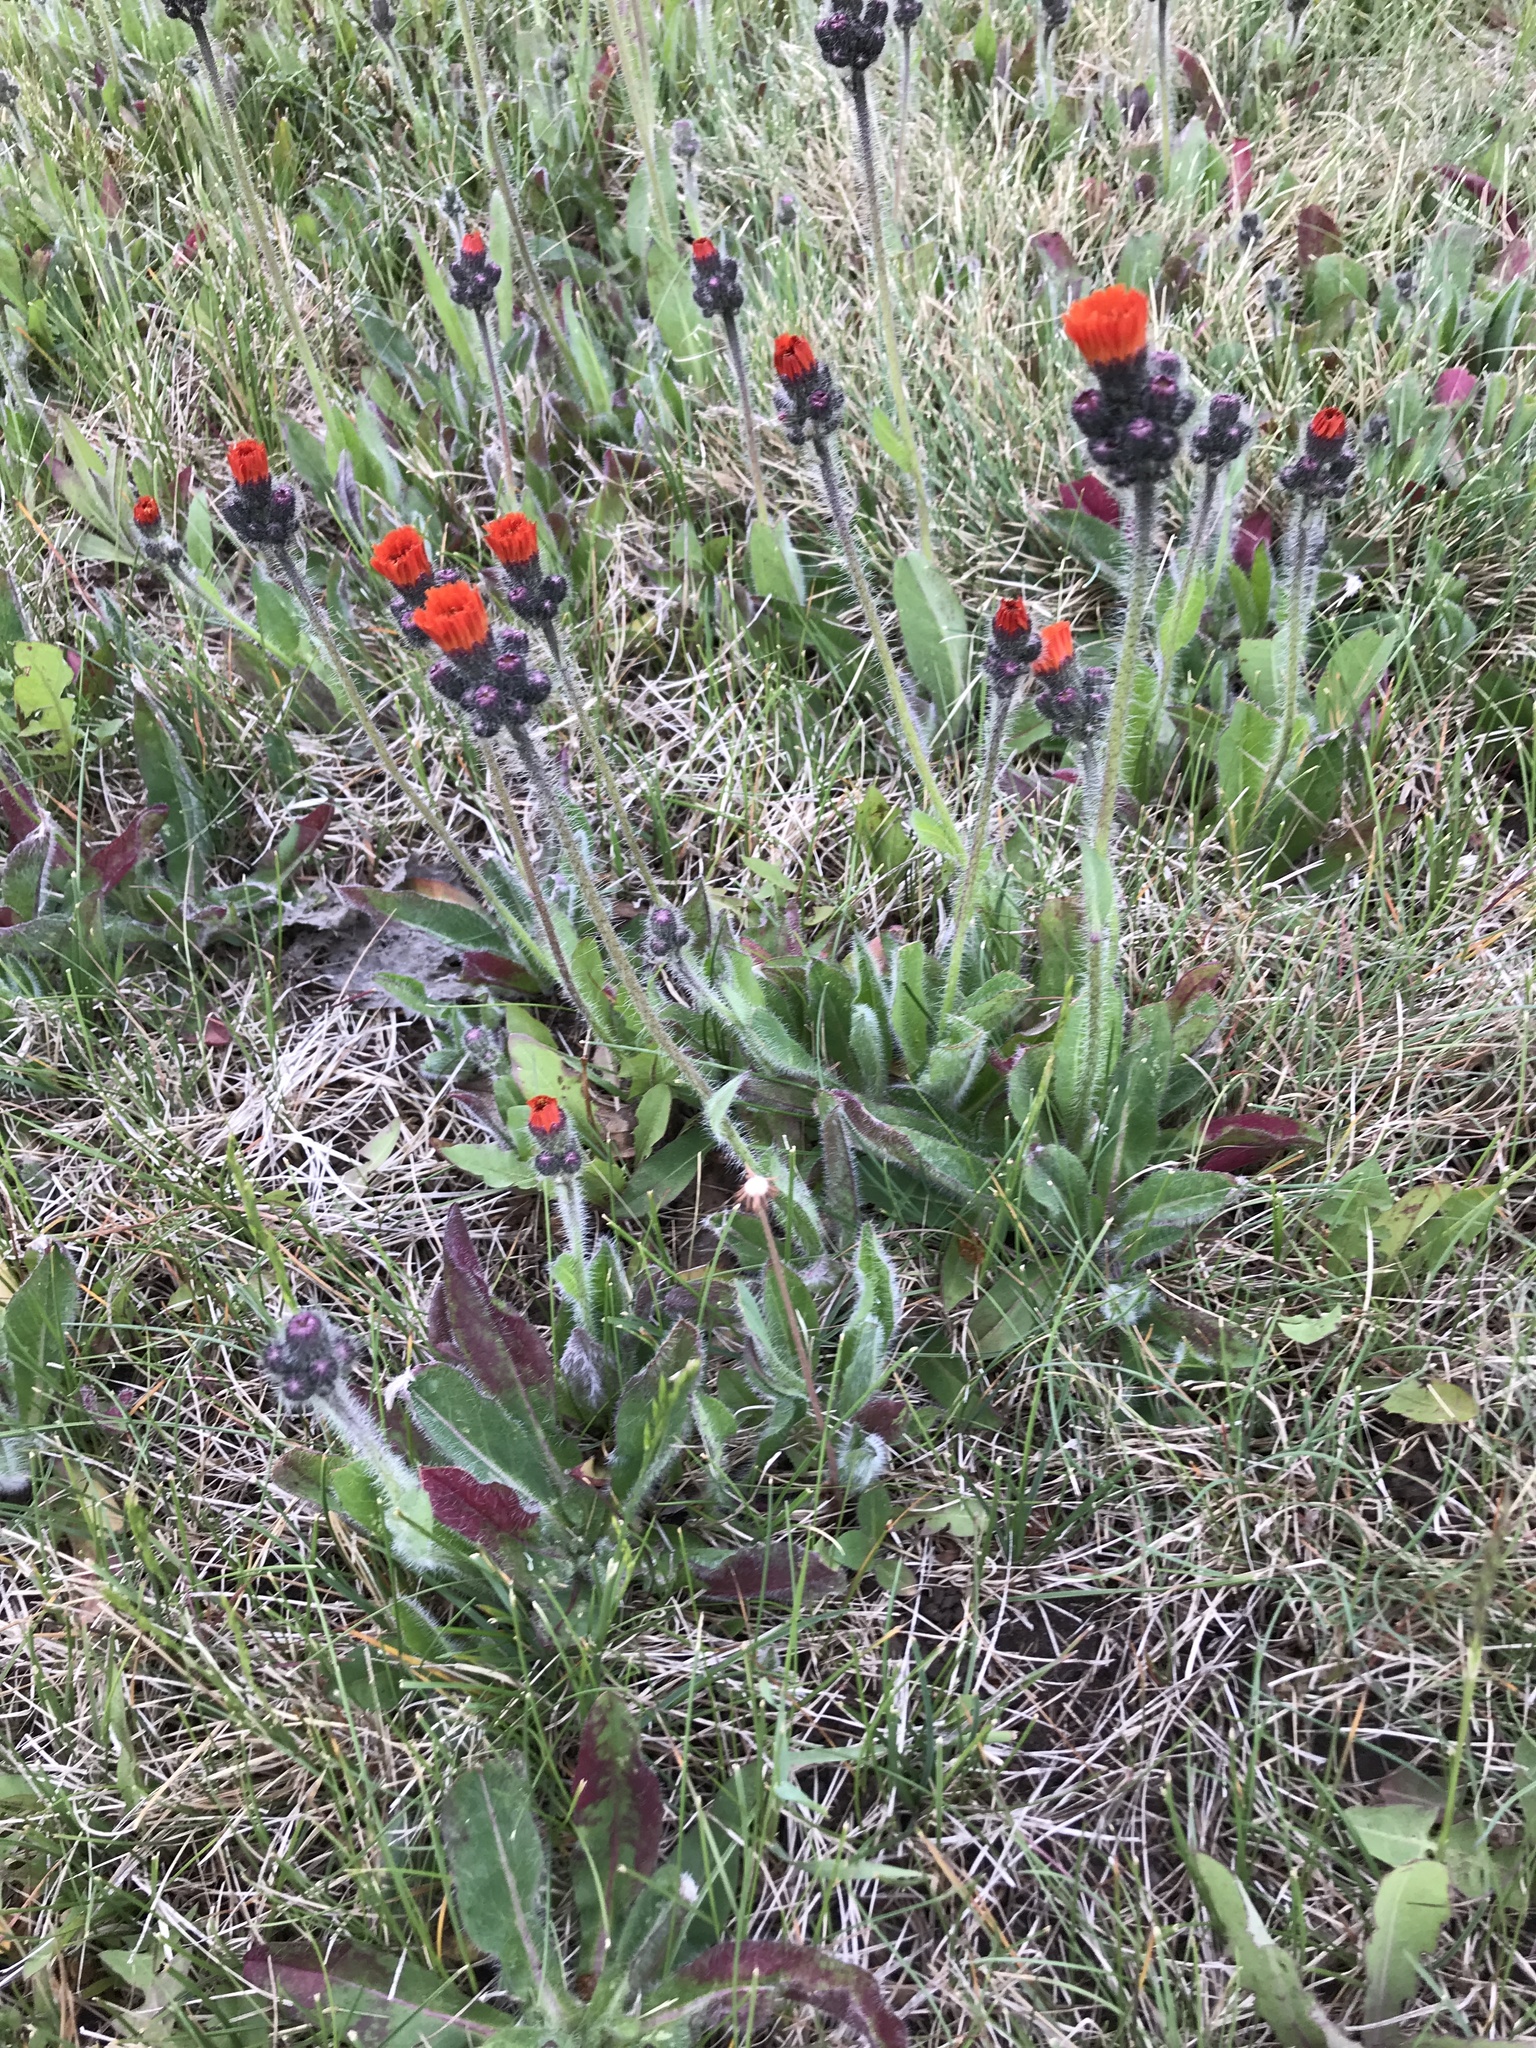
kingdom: Plantae
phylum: Tracheophyta
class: Magnoliopsida
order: Asterales
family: Asteraceae
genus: Pilosella
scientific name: Pilosella aurantiaca
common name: Fox-and-cubs
